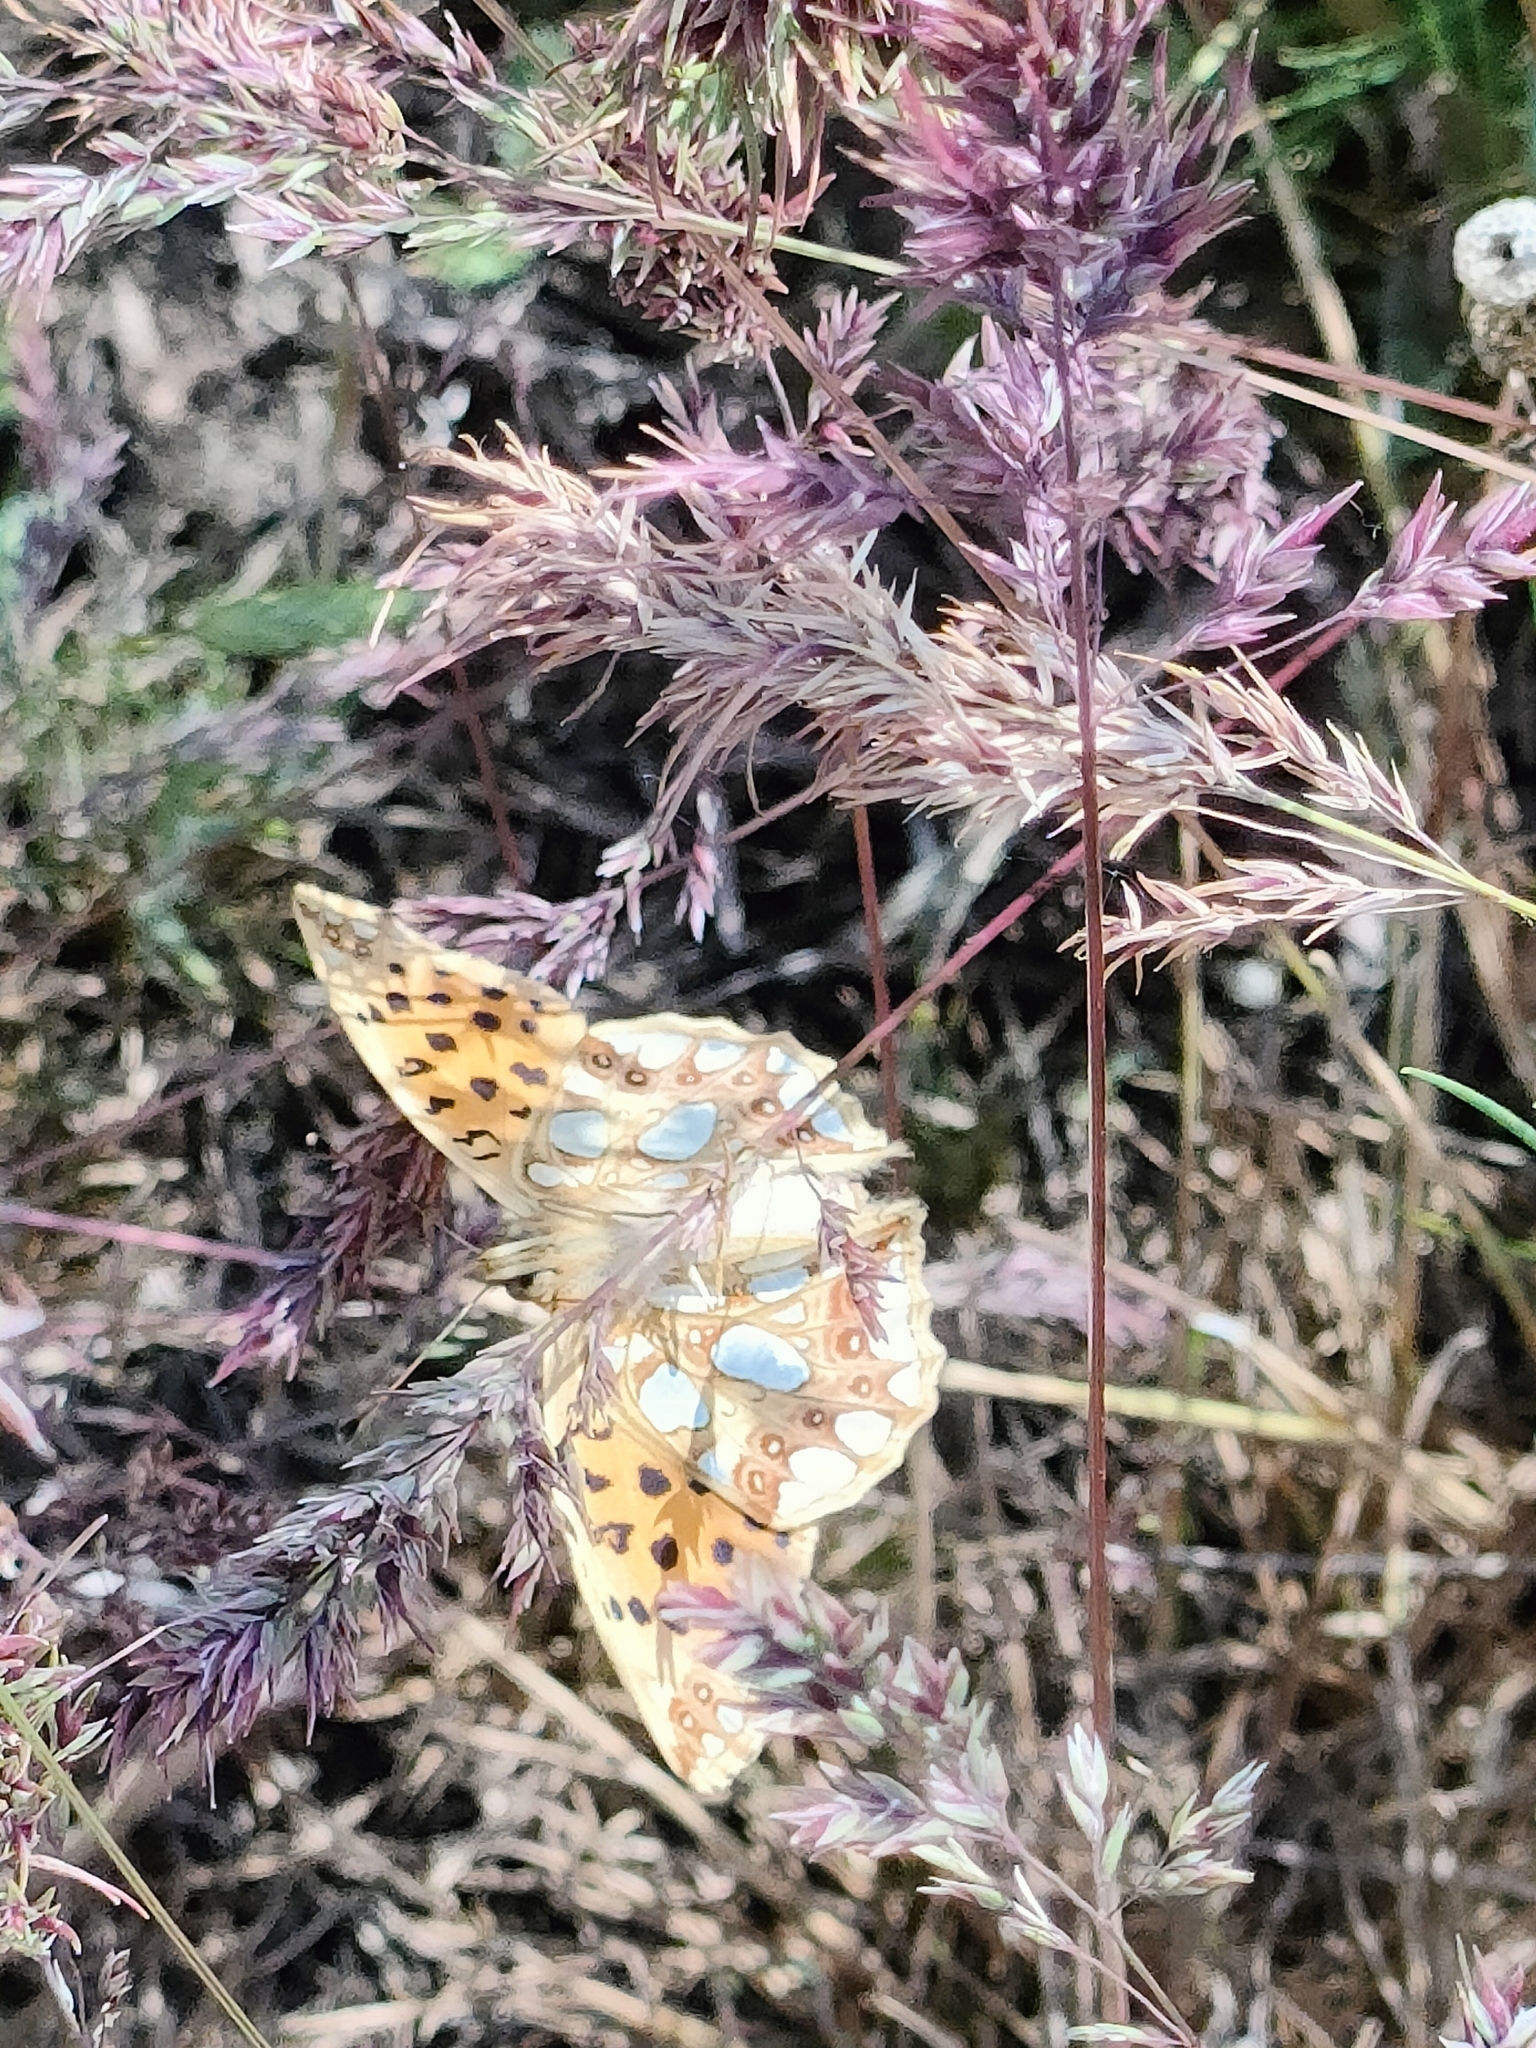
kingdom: Animalia
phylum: Arthropoda
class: Insecta
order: Lepidoptera
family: Nymphalidae
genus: Issoria
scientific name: Issoria lathonia
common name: Queen of spain fritillary
